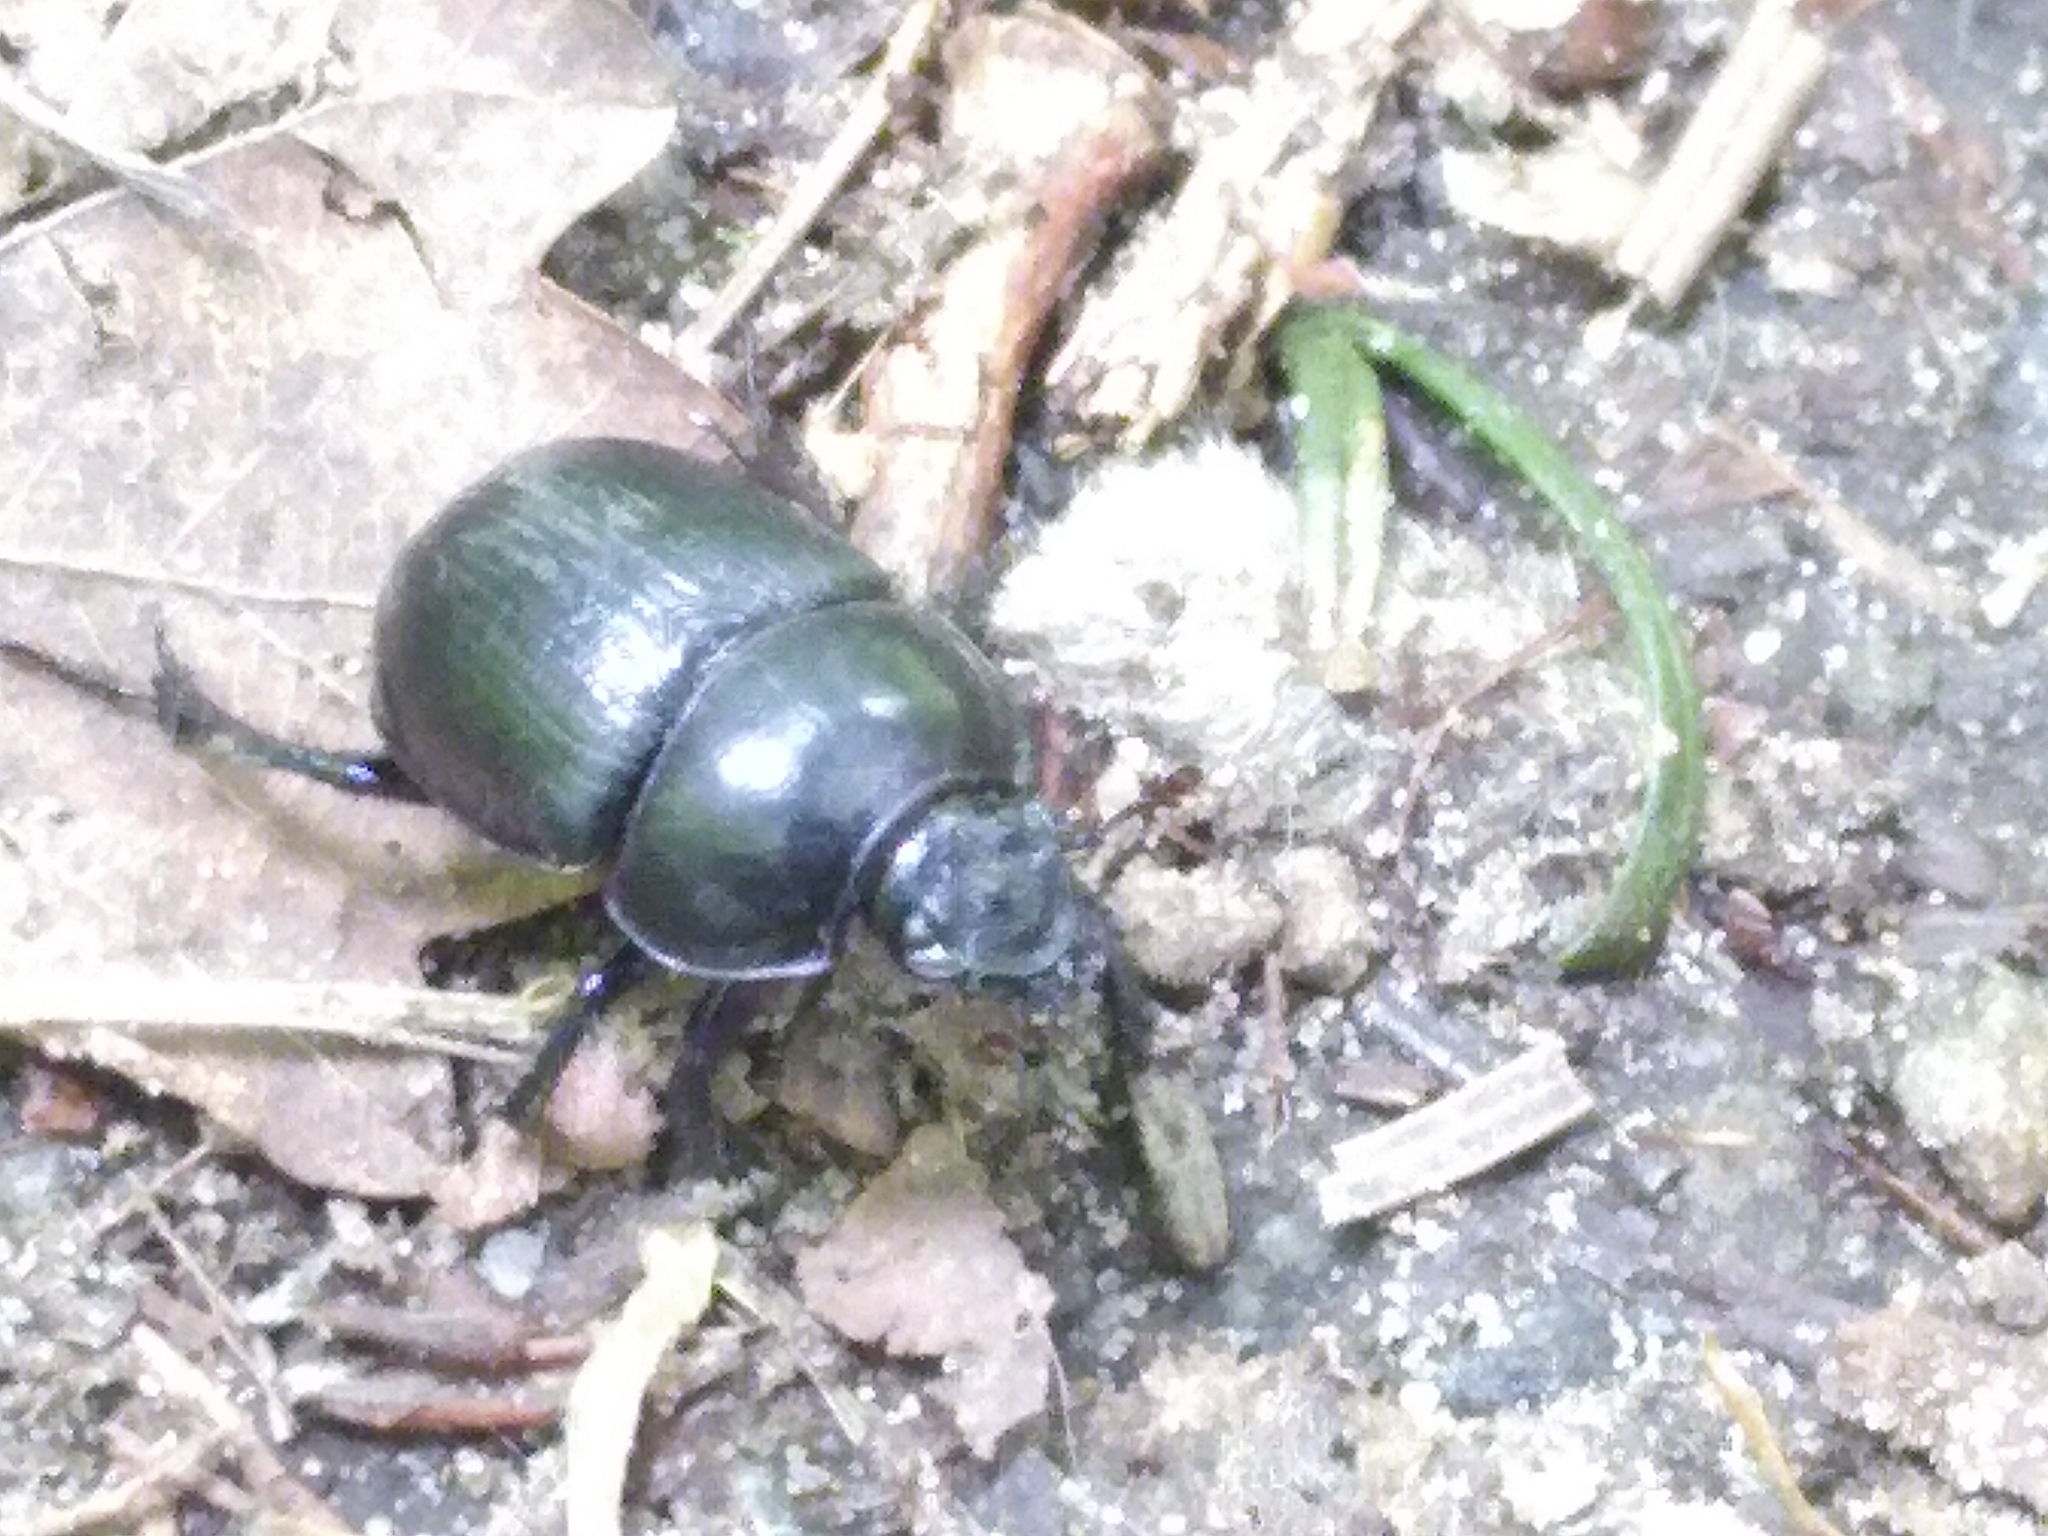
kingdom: Animalia
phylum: Arthropoda
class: Insecta
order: Coleoptera
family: Geotrupidae
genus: Anoplotrupes
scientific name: Anoplotrupes stercorosus
